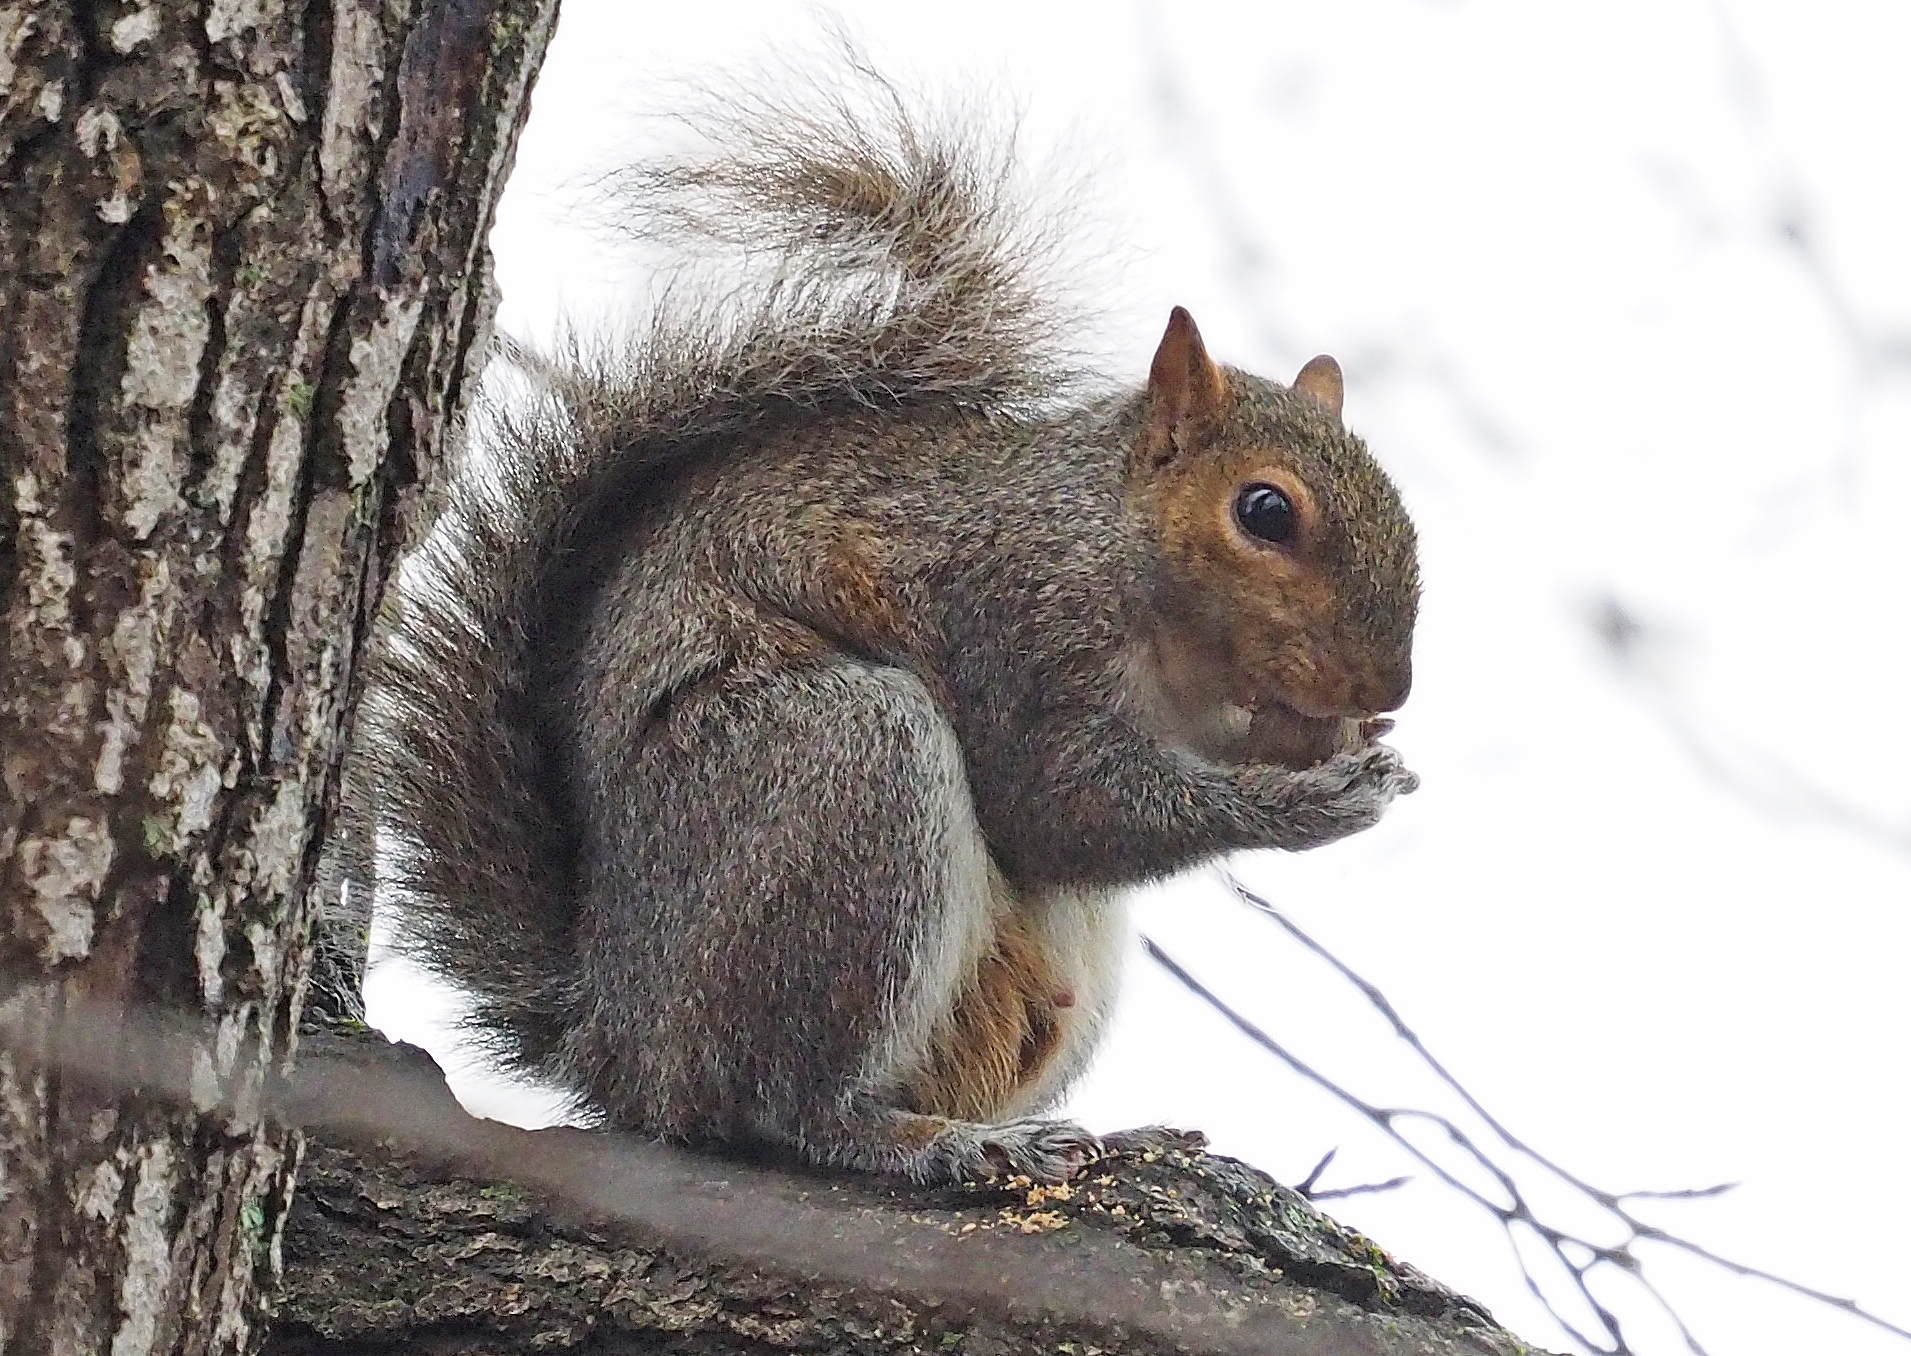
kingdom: Animalia
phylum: Chordata
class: Mammalia
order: Rodentia
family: Sciuridae
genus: Sciurus
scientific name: Sciurus carolinensis
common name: Eastern gray squirrel
